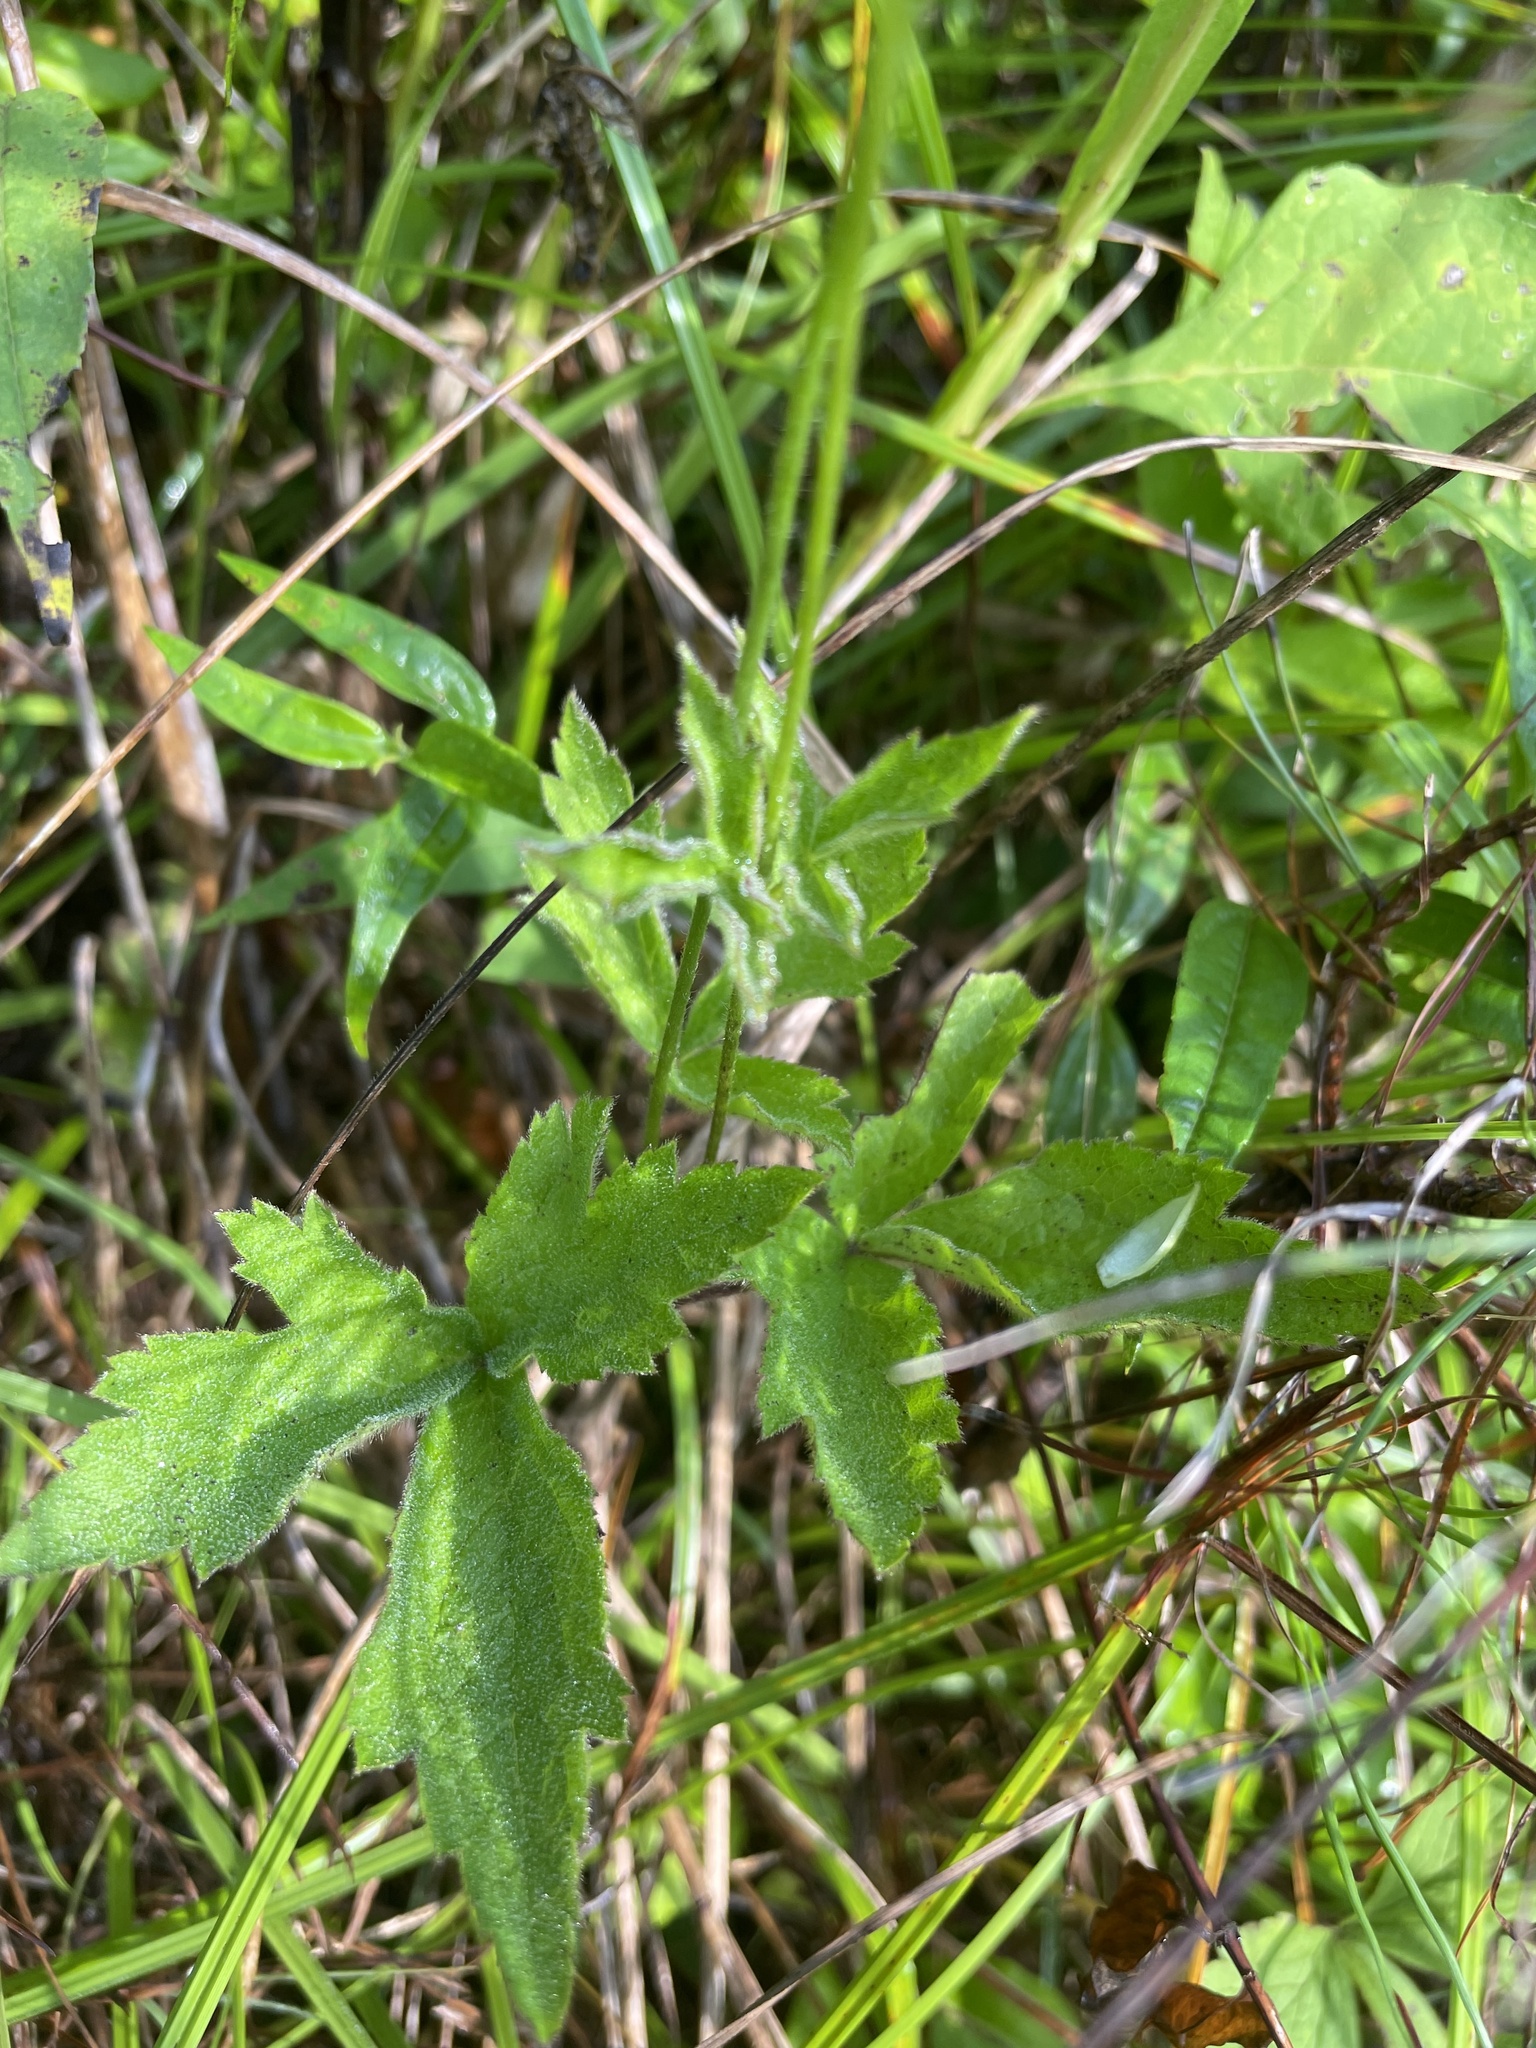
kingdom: Plantae
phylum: Tracheophyta
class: Magnoliopsida
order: Ranunculales
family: Ranunculaceae
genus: Anemone
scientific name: Anemone virginiana
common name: Tall anemone
